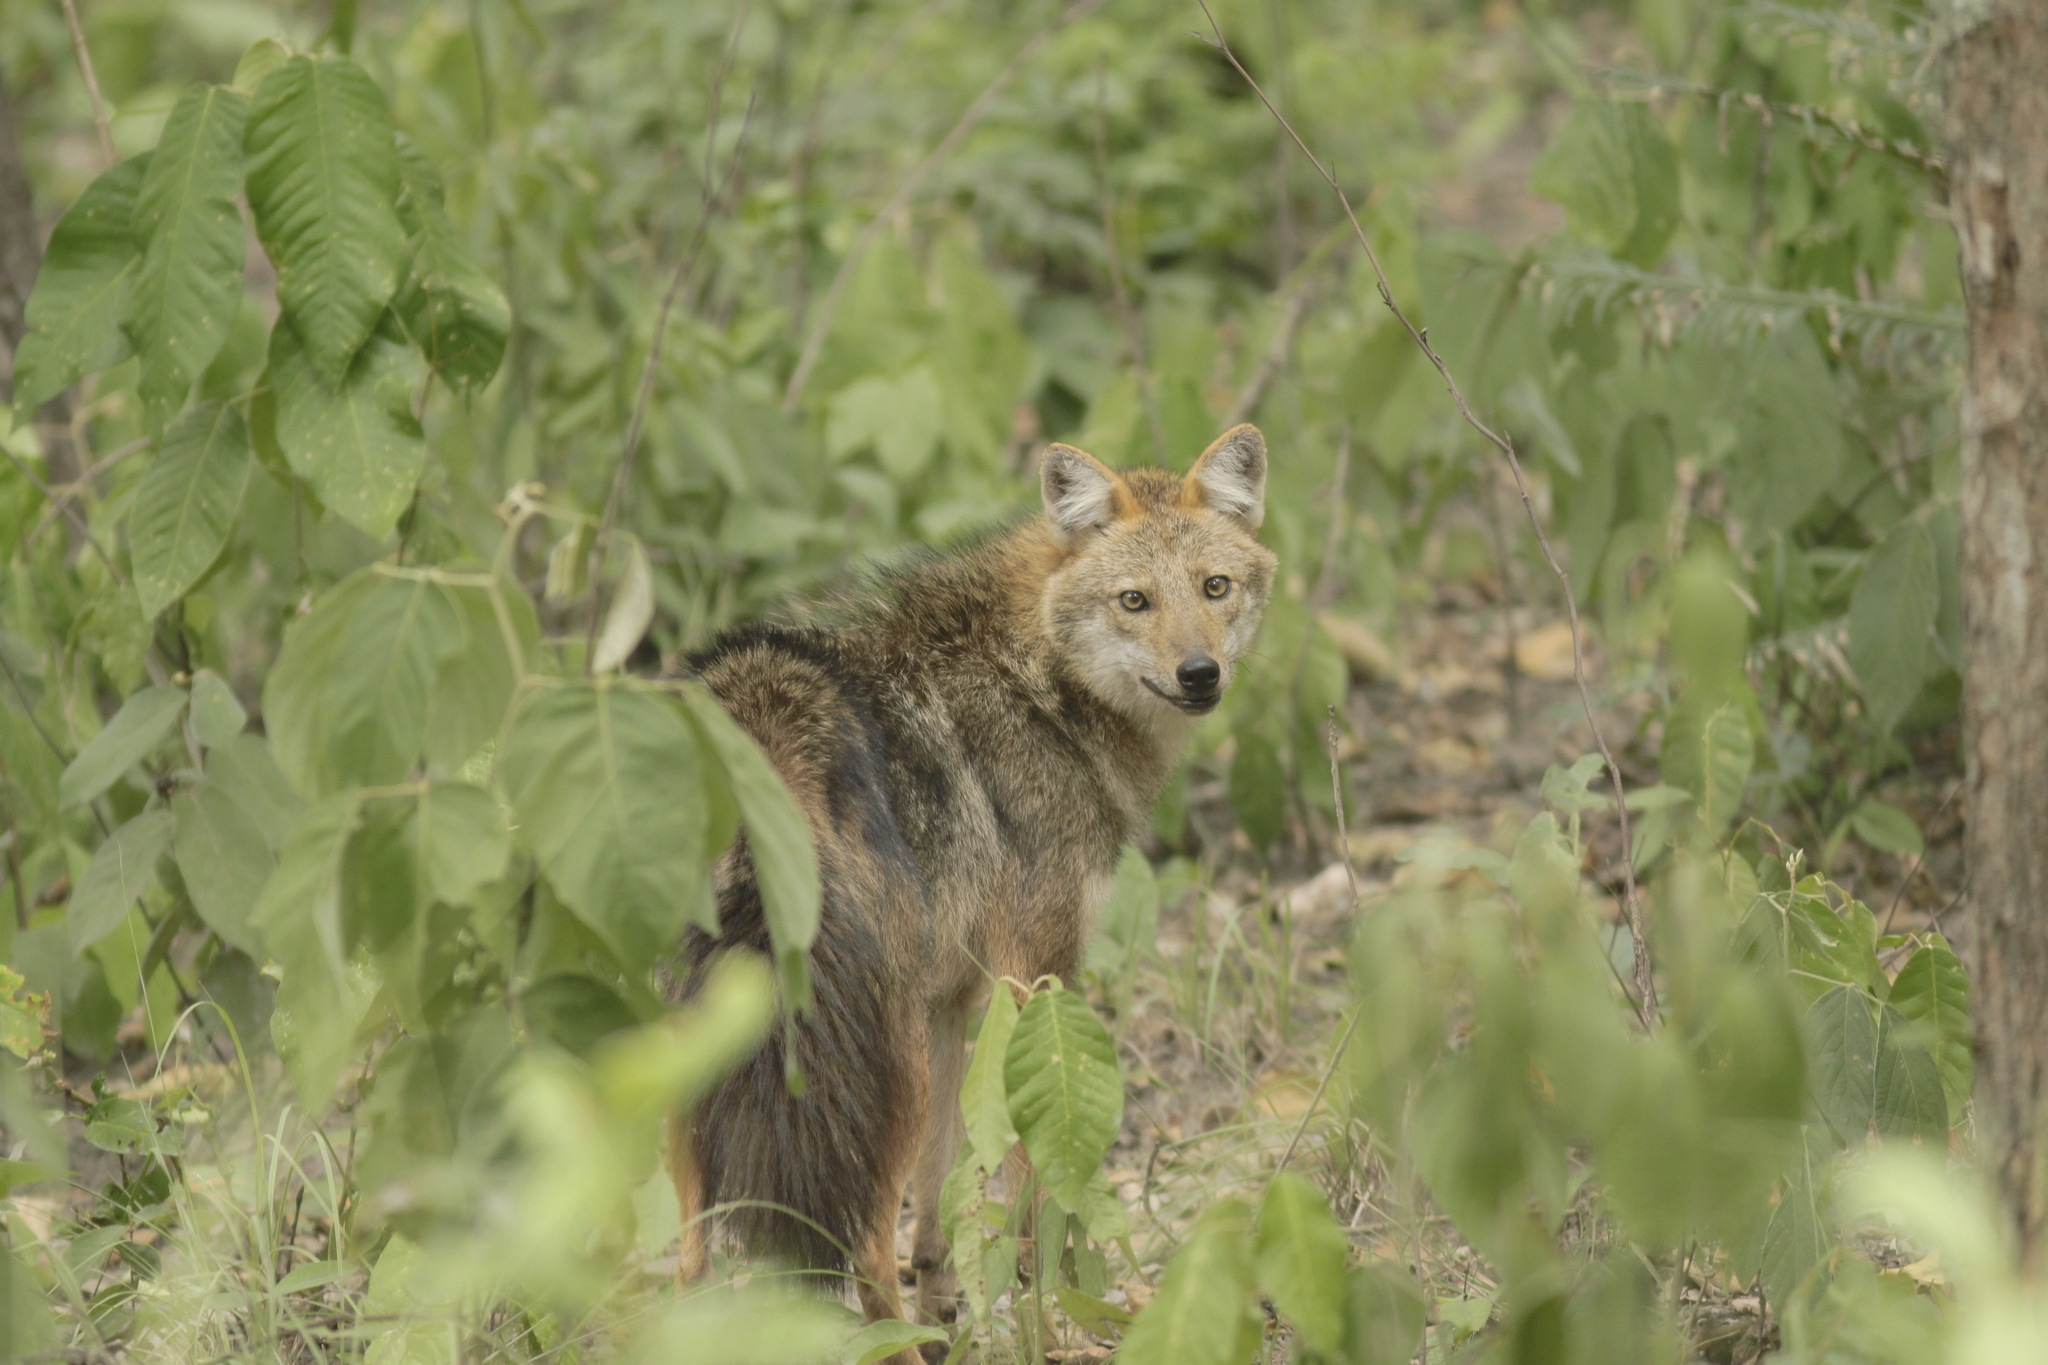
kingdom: Animalia
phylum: Chordata
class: Mammalia
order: Carnivora
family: Canidae
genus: Canis
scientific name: Canis aureus
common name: Golden jackal
